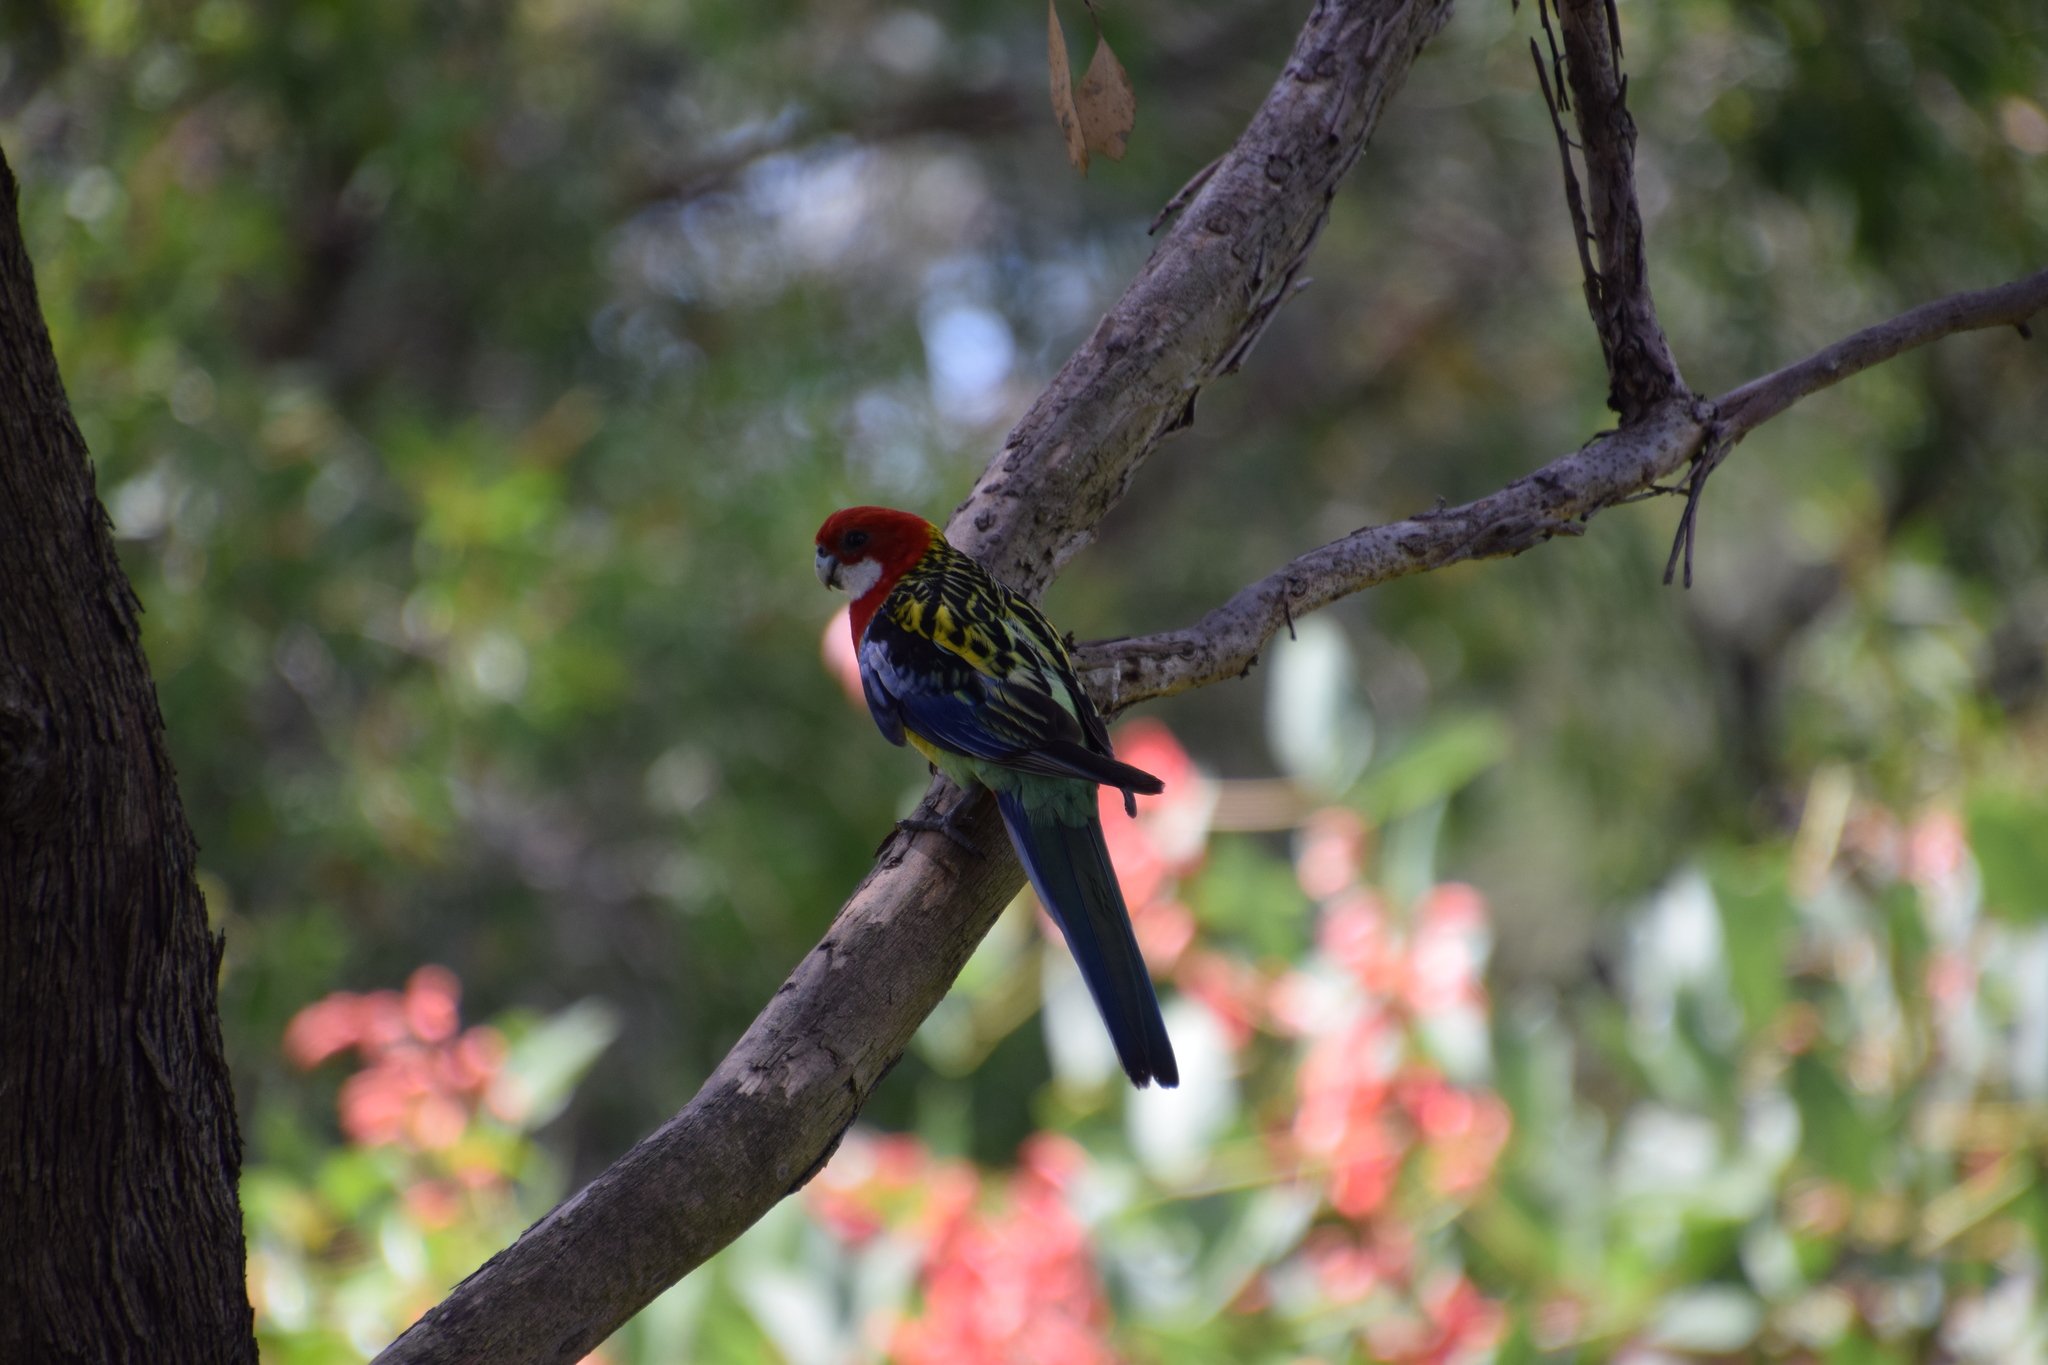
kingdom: Animalia
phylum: Chordata
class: Aves
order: Psittaciformes
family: Psittacidae
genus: Platycercus
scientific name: Platycercus eximius
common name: Eastern rosella
